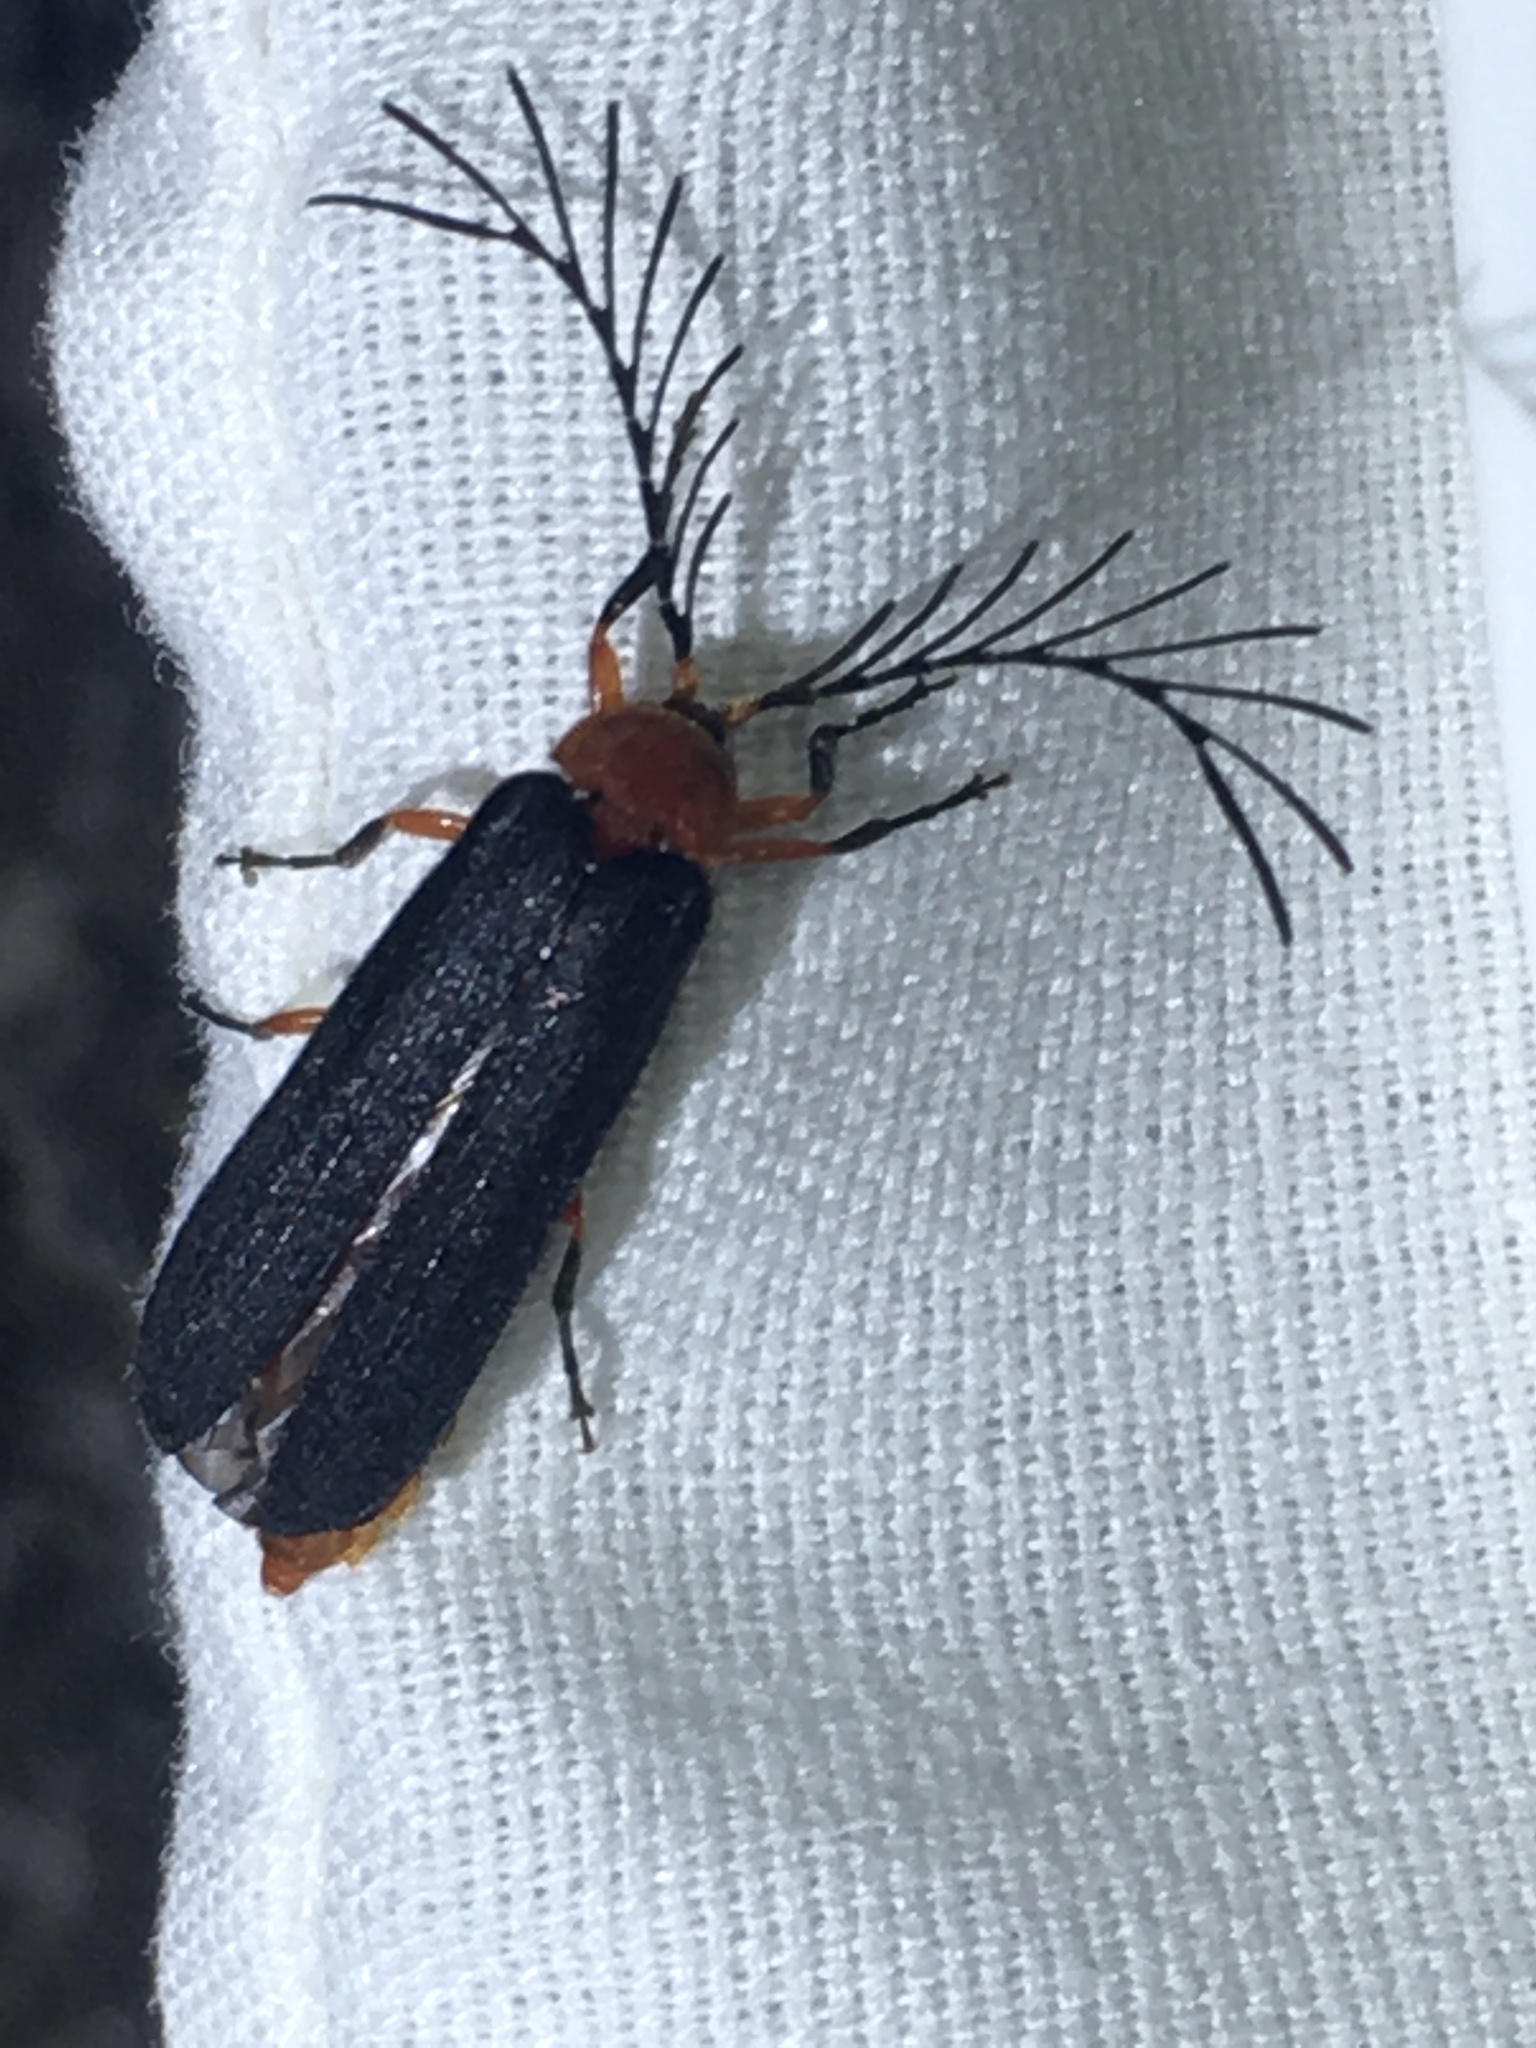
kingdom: Animalia
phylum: Arthropoda
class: Insecta
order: Coleoptera
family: Lampyridae
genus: Pterotus
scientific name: Pterotus obscuripennis
